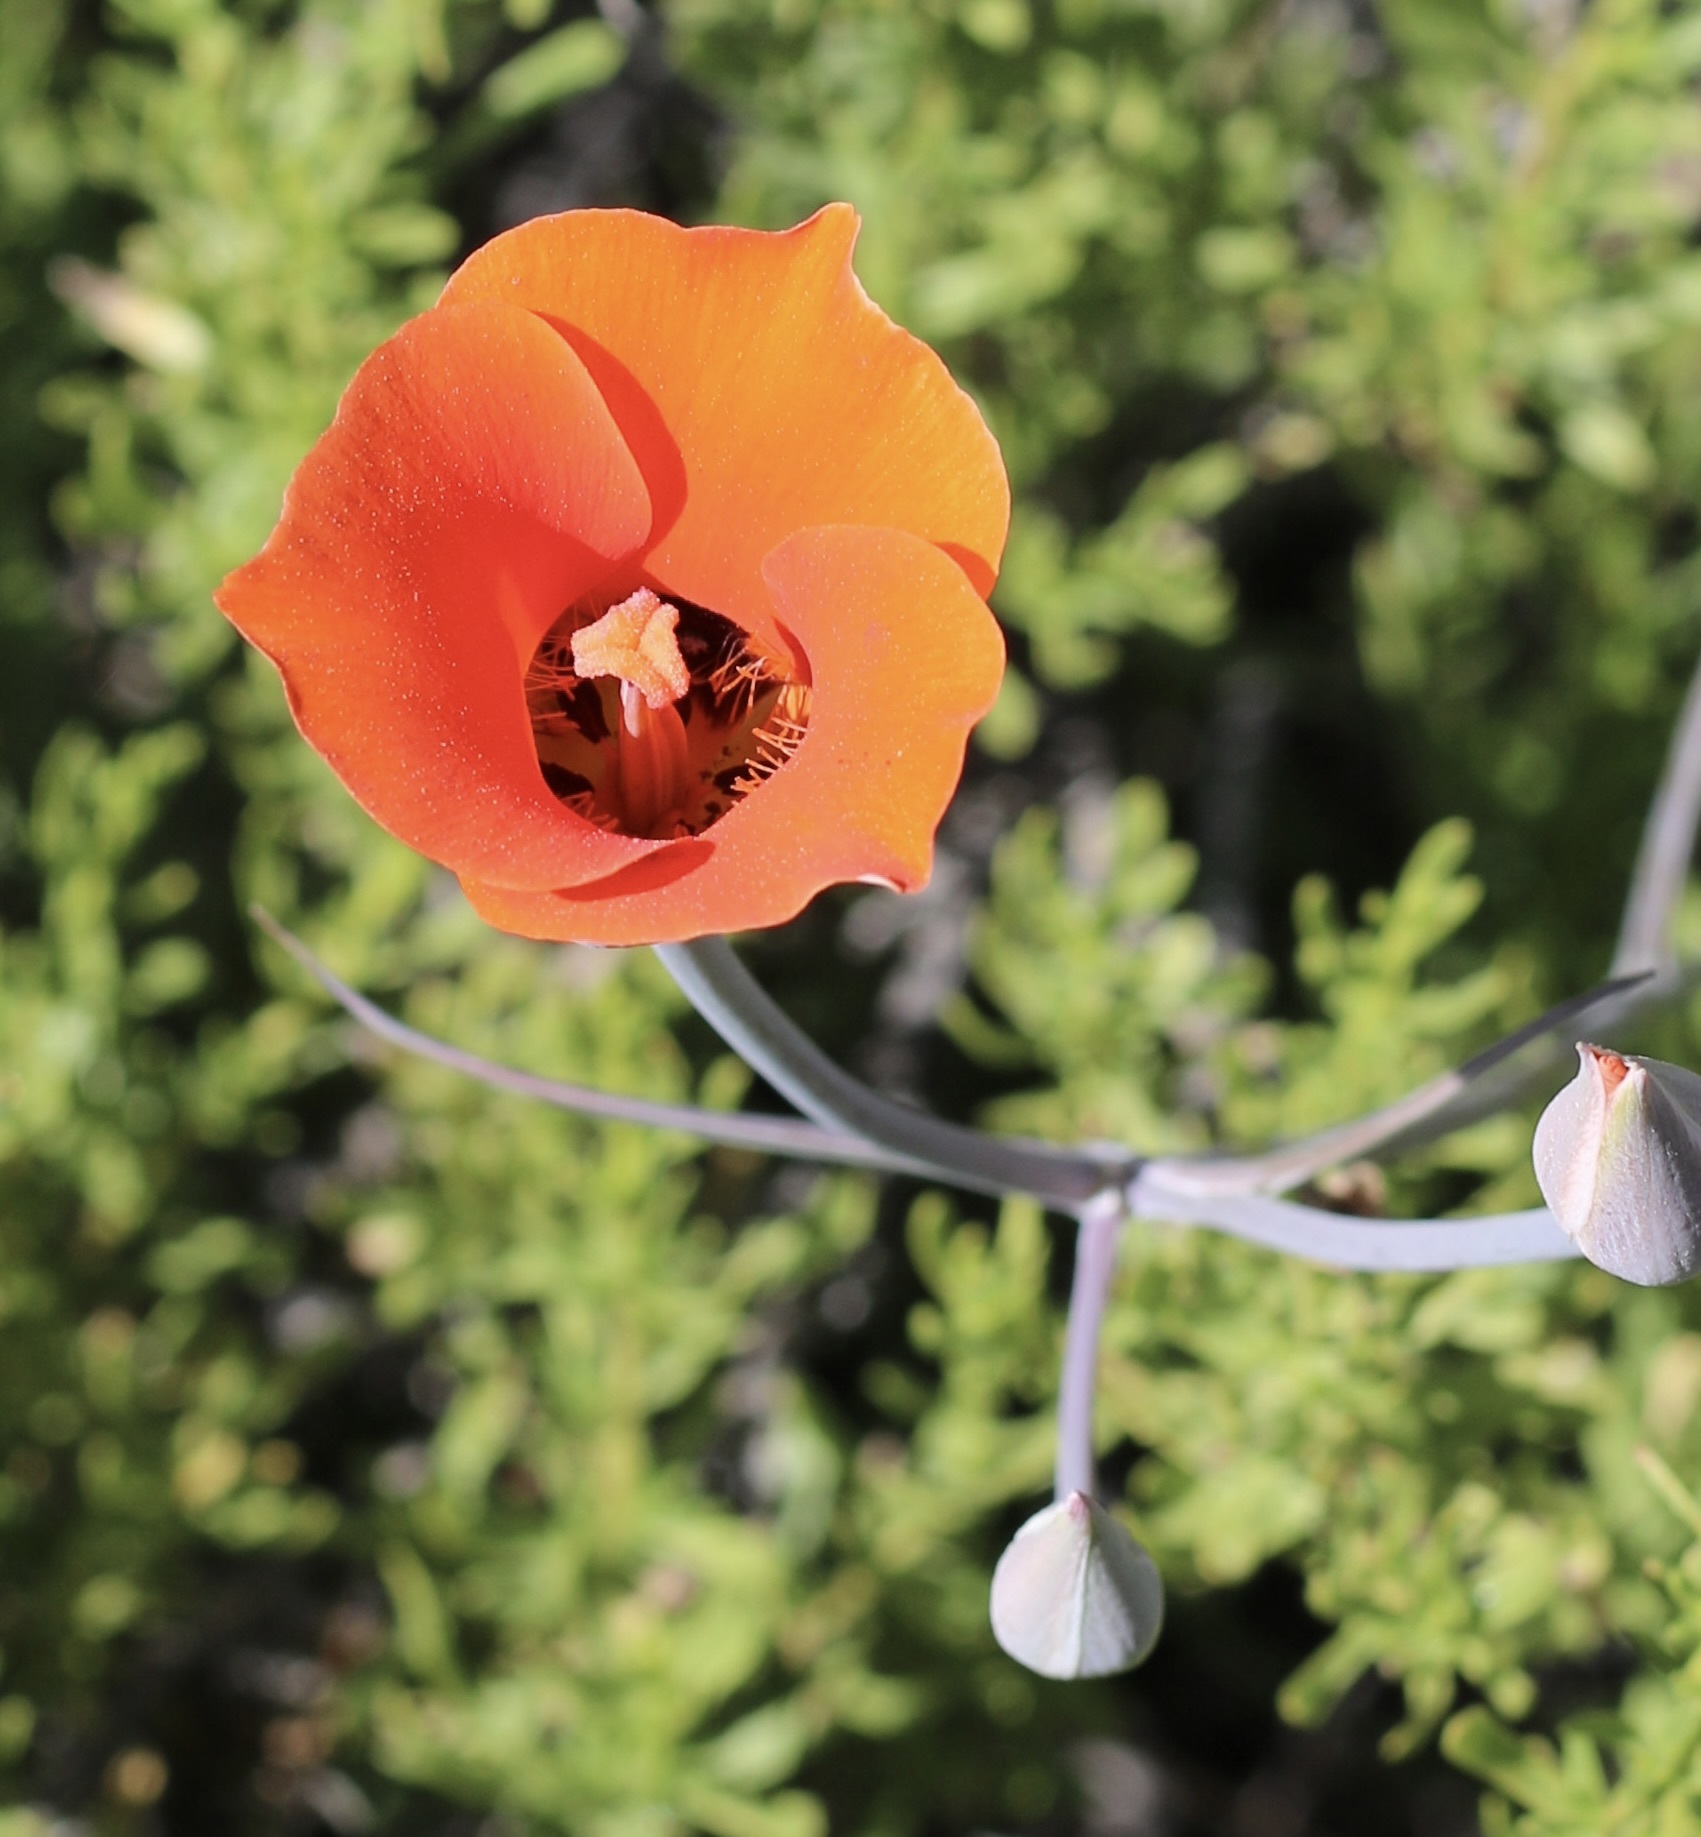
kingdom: Plantae
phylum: Tracheophyta
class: Liliopsida
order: Liliales
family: Liliaceae
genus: Calochortus
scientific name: Calochortus kennedyi
